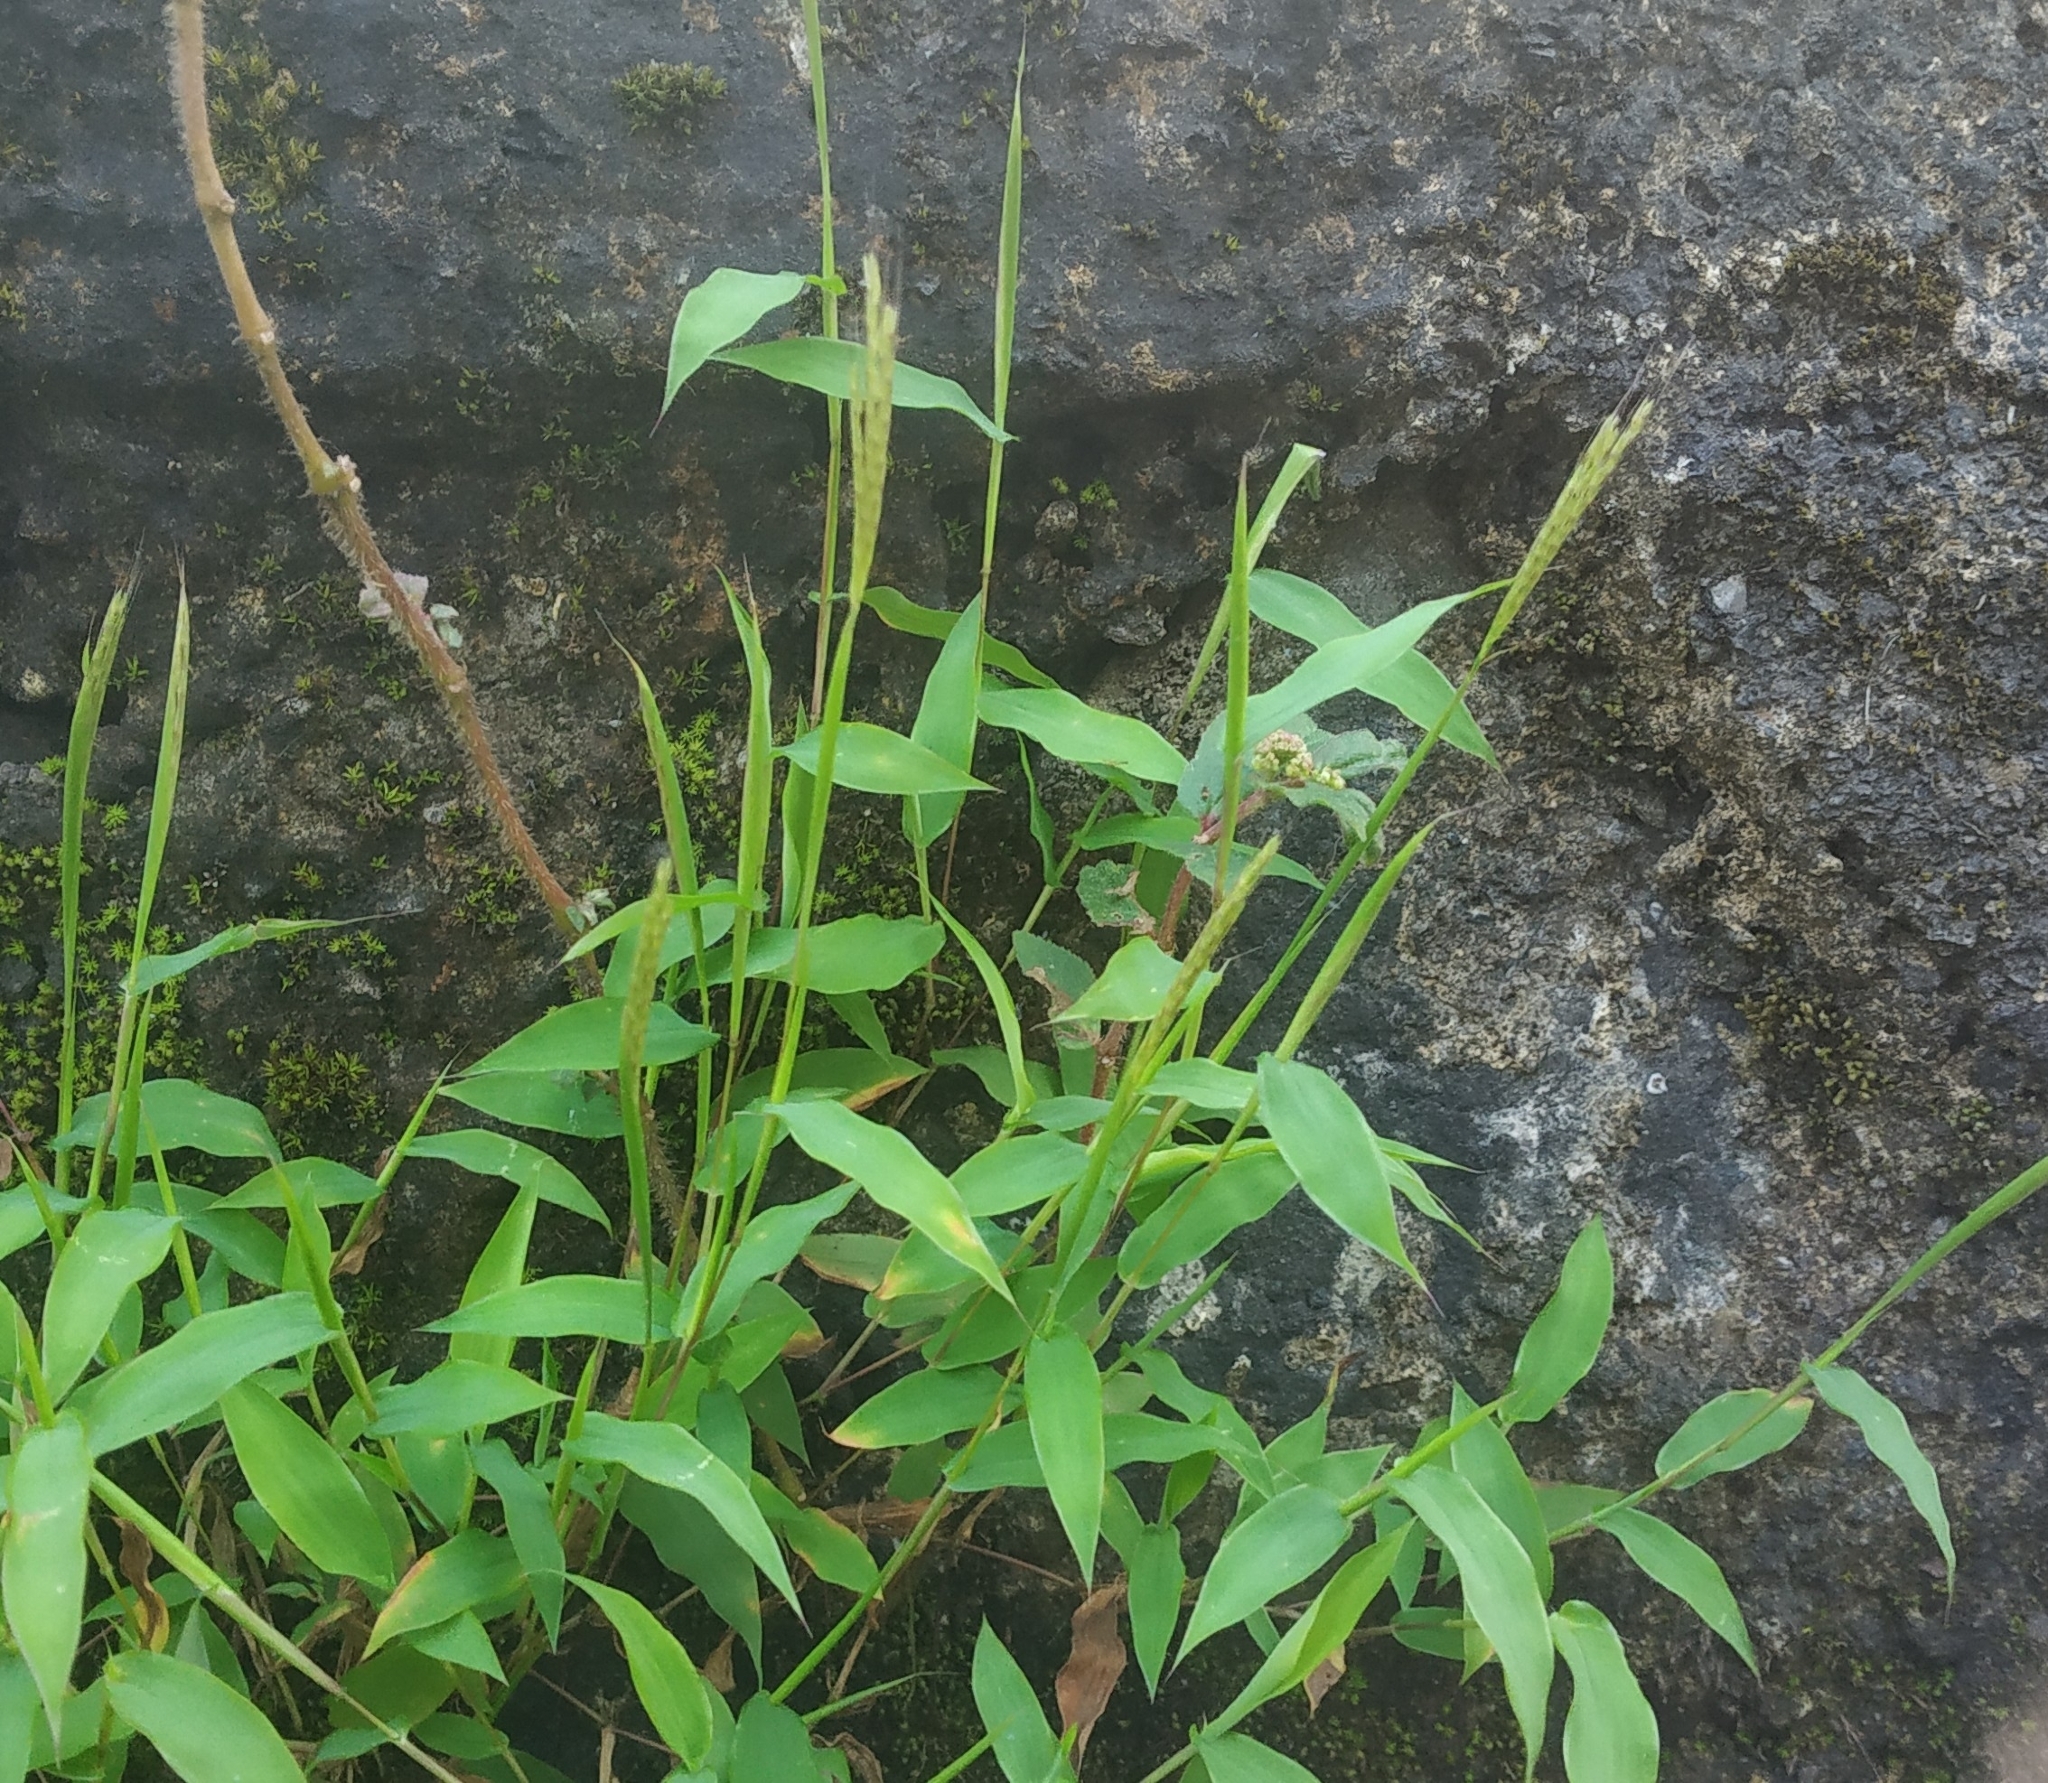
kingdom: Plantae
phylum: Tracheophyta
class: Liliopsida
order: Poales
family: Poaceae
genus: Arthraxon
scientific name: Arthraxon lancifolius
